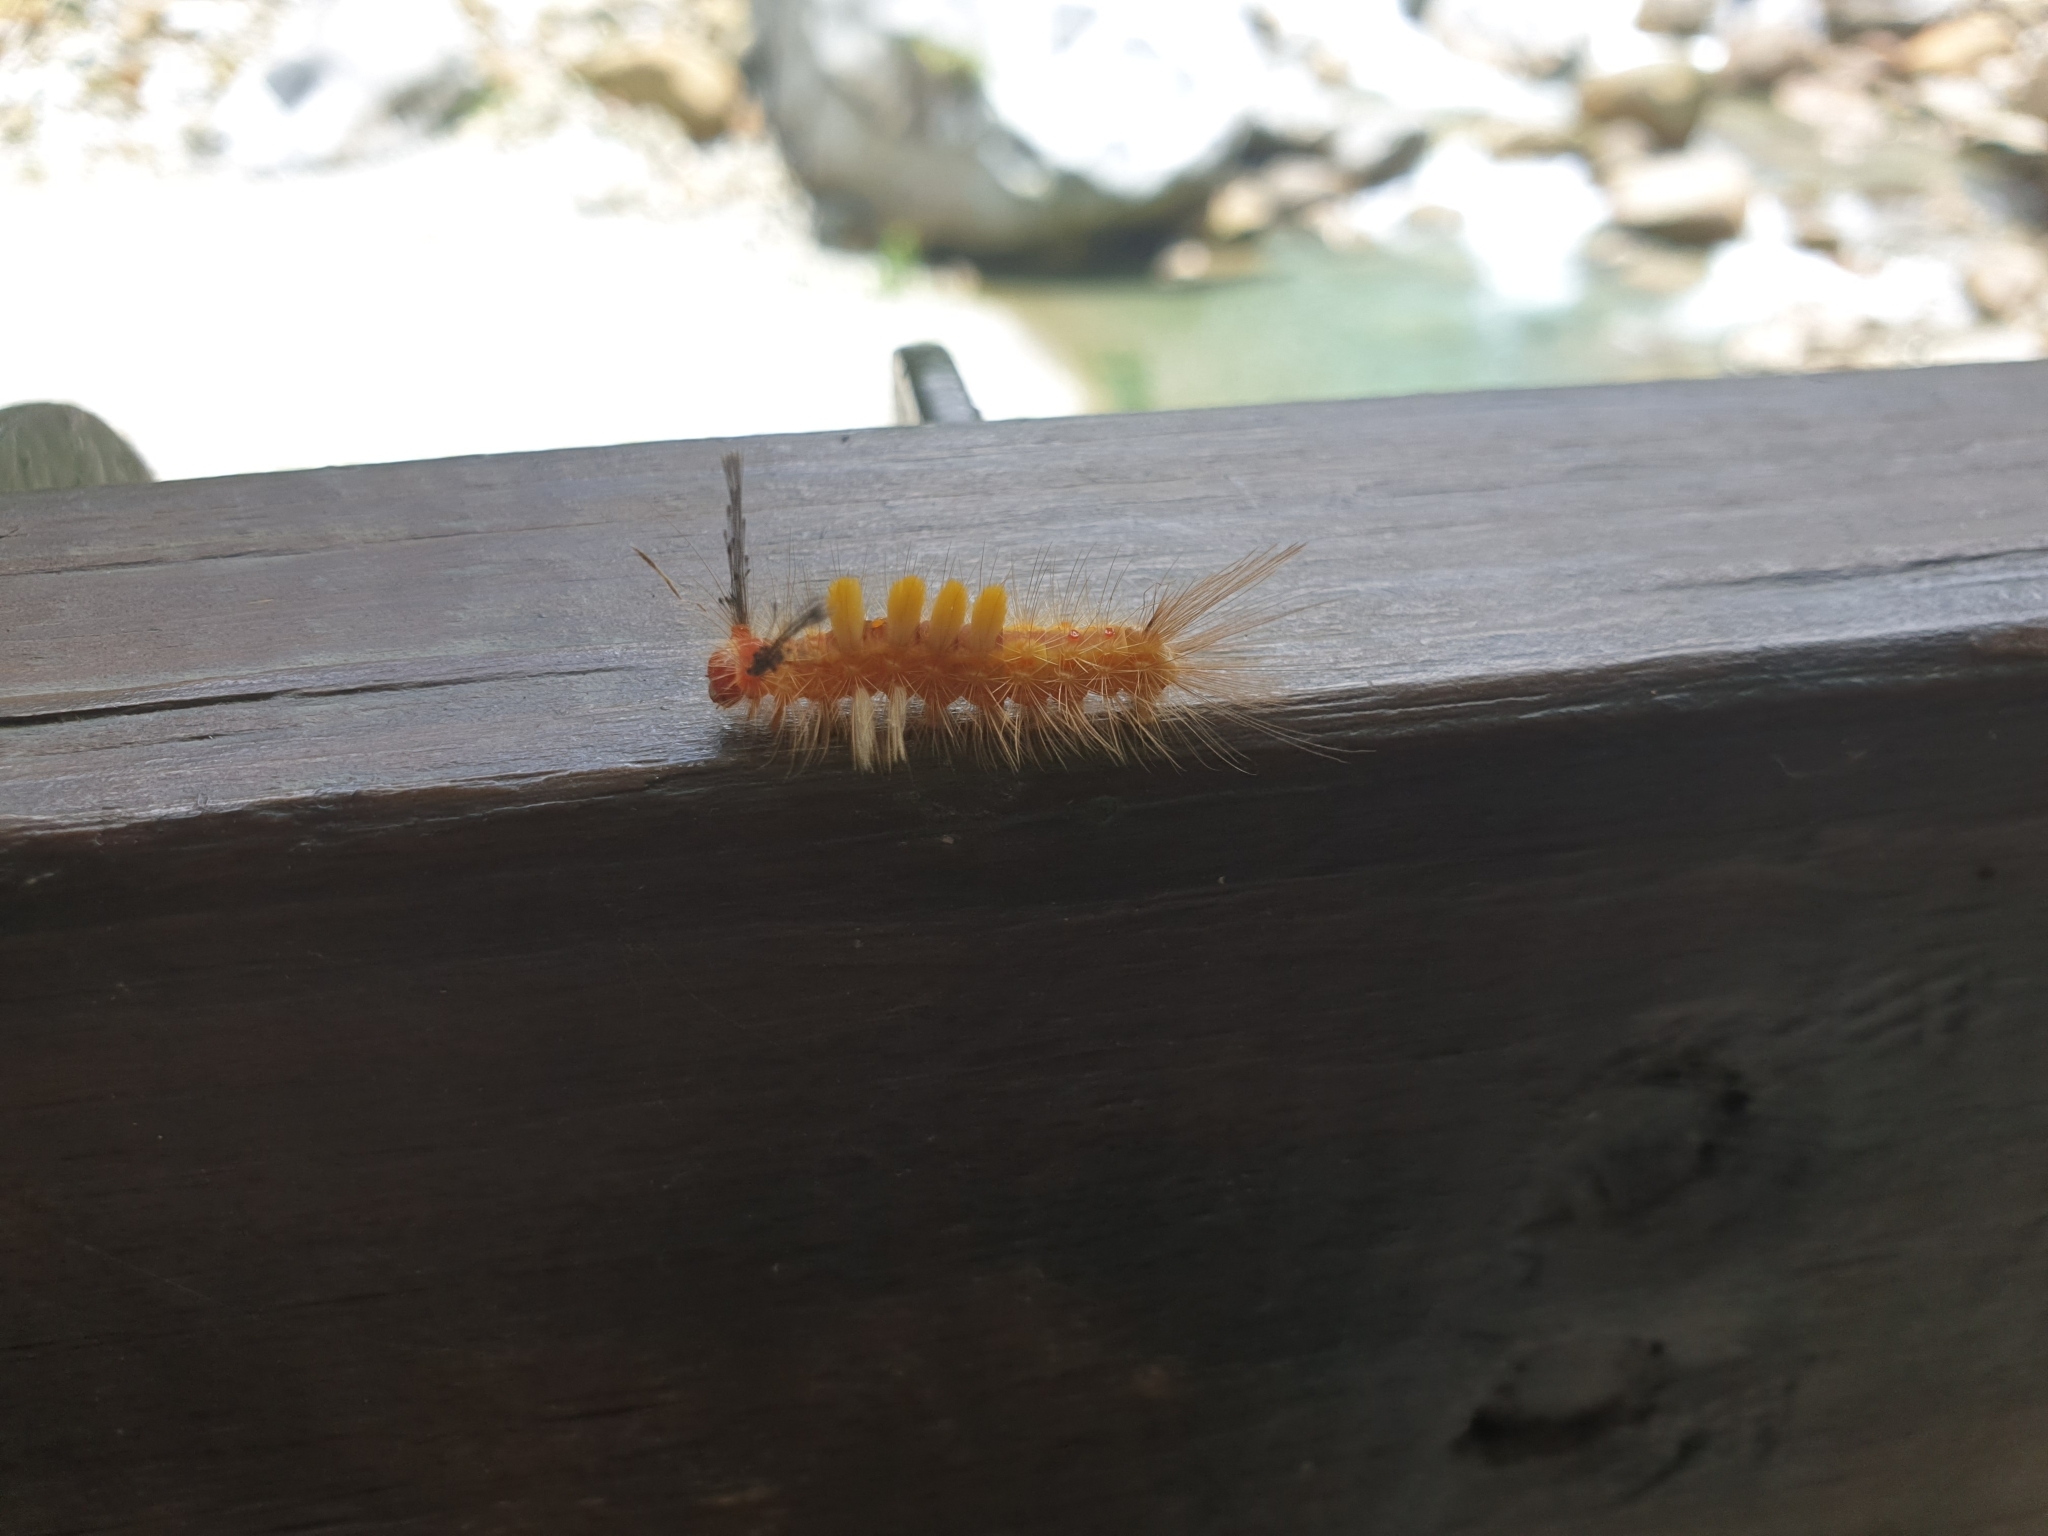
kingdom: Animalia
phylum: Arthropoda
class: Insecta
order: Lepidoptera
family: Erebidae
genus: Orgyia
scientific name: Orgyia postica
